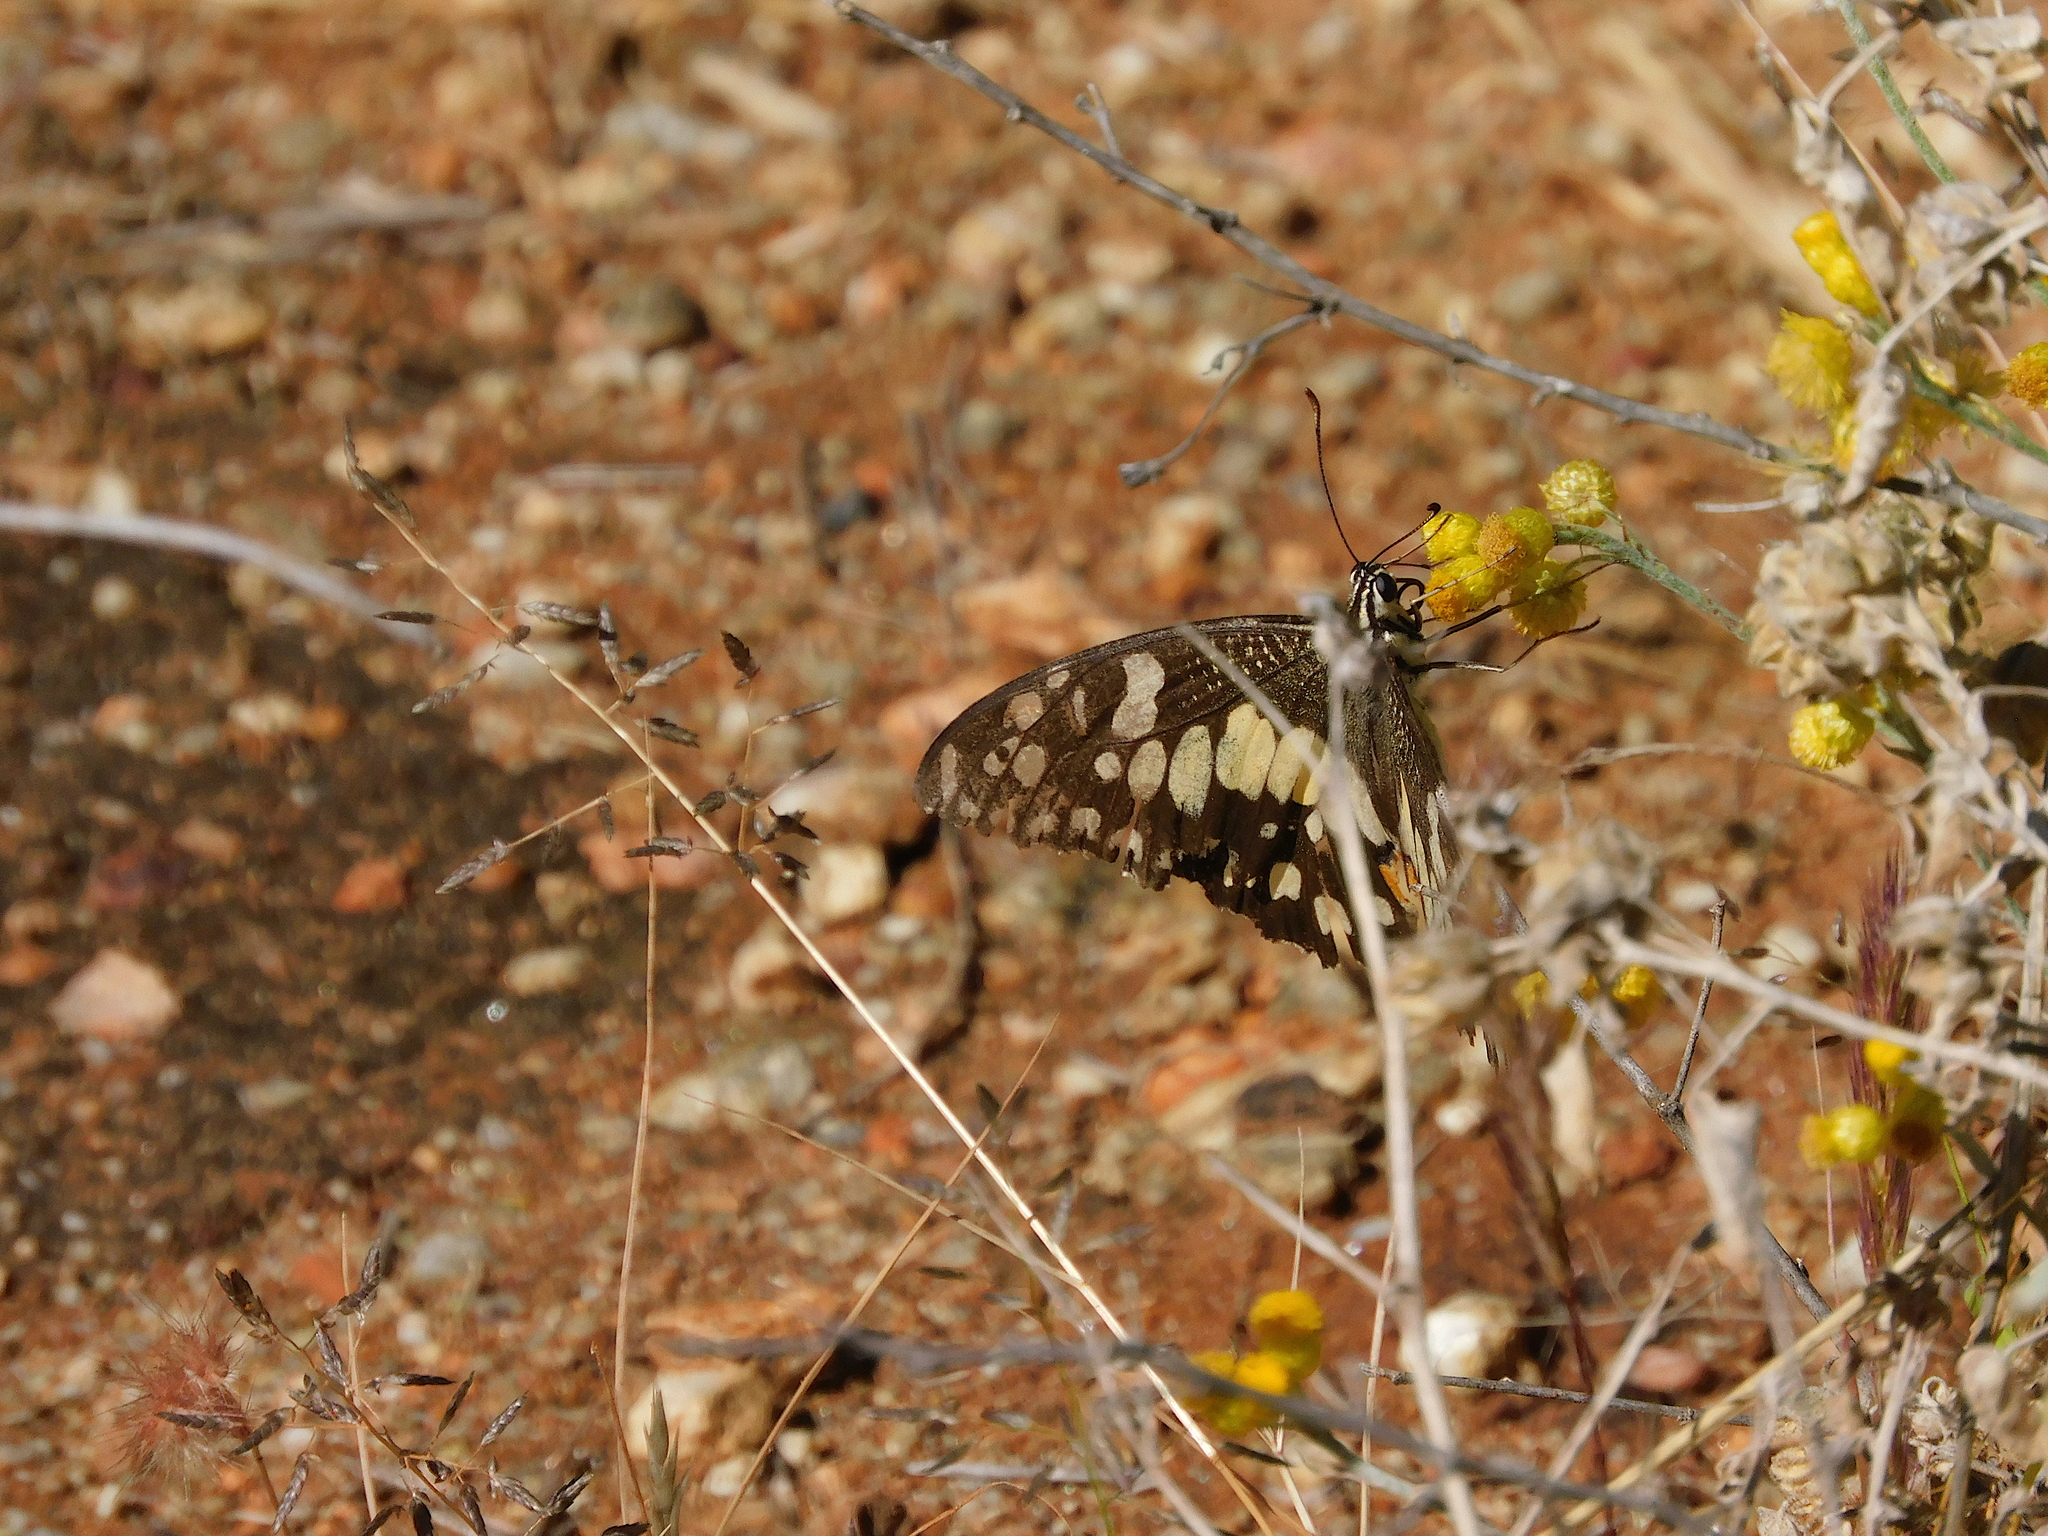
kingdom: Animalia
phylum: Arthropoda
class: Insecta
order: Lepidoptera
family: Papilionidae
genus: Papilio
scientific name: Papilio demoleus
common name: Lime butterfly
